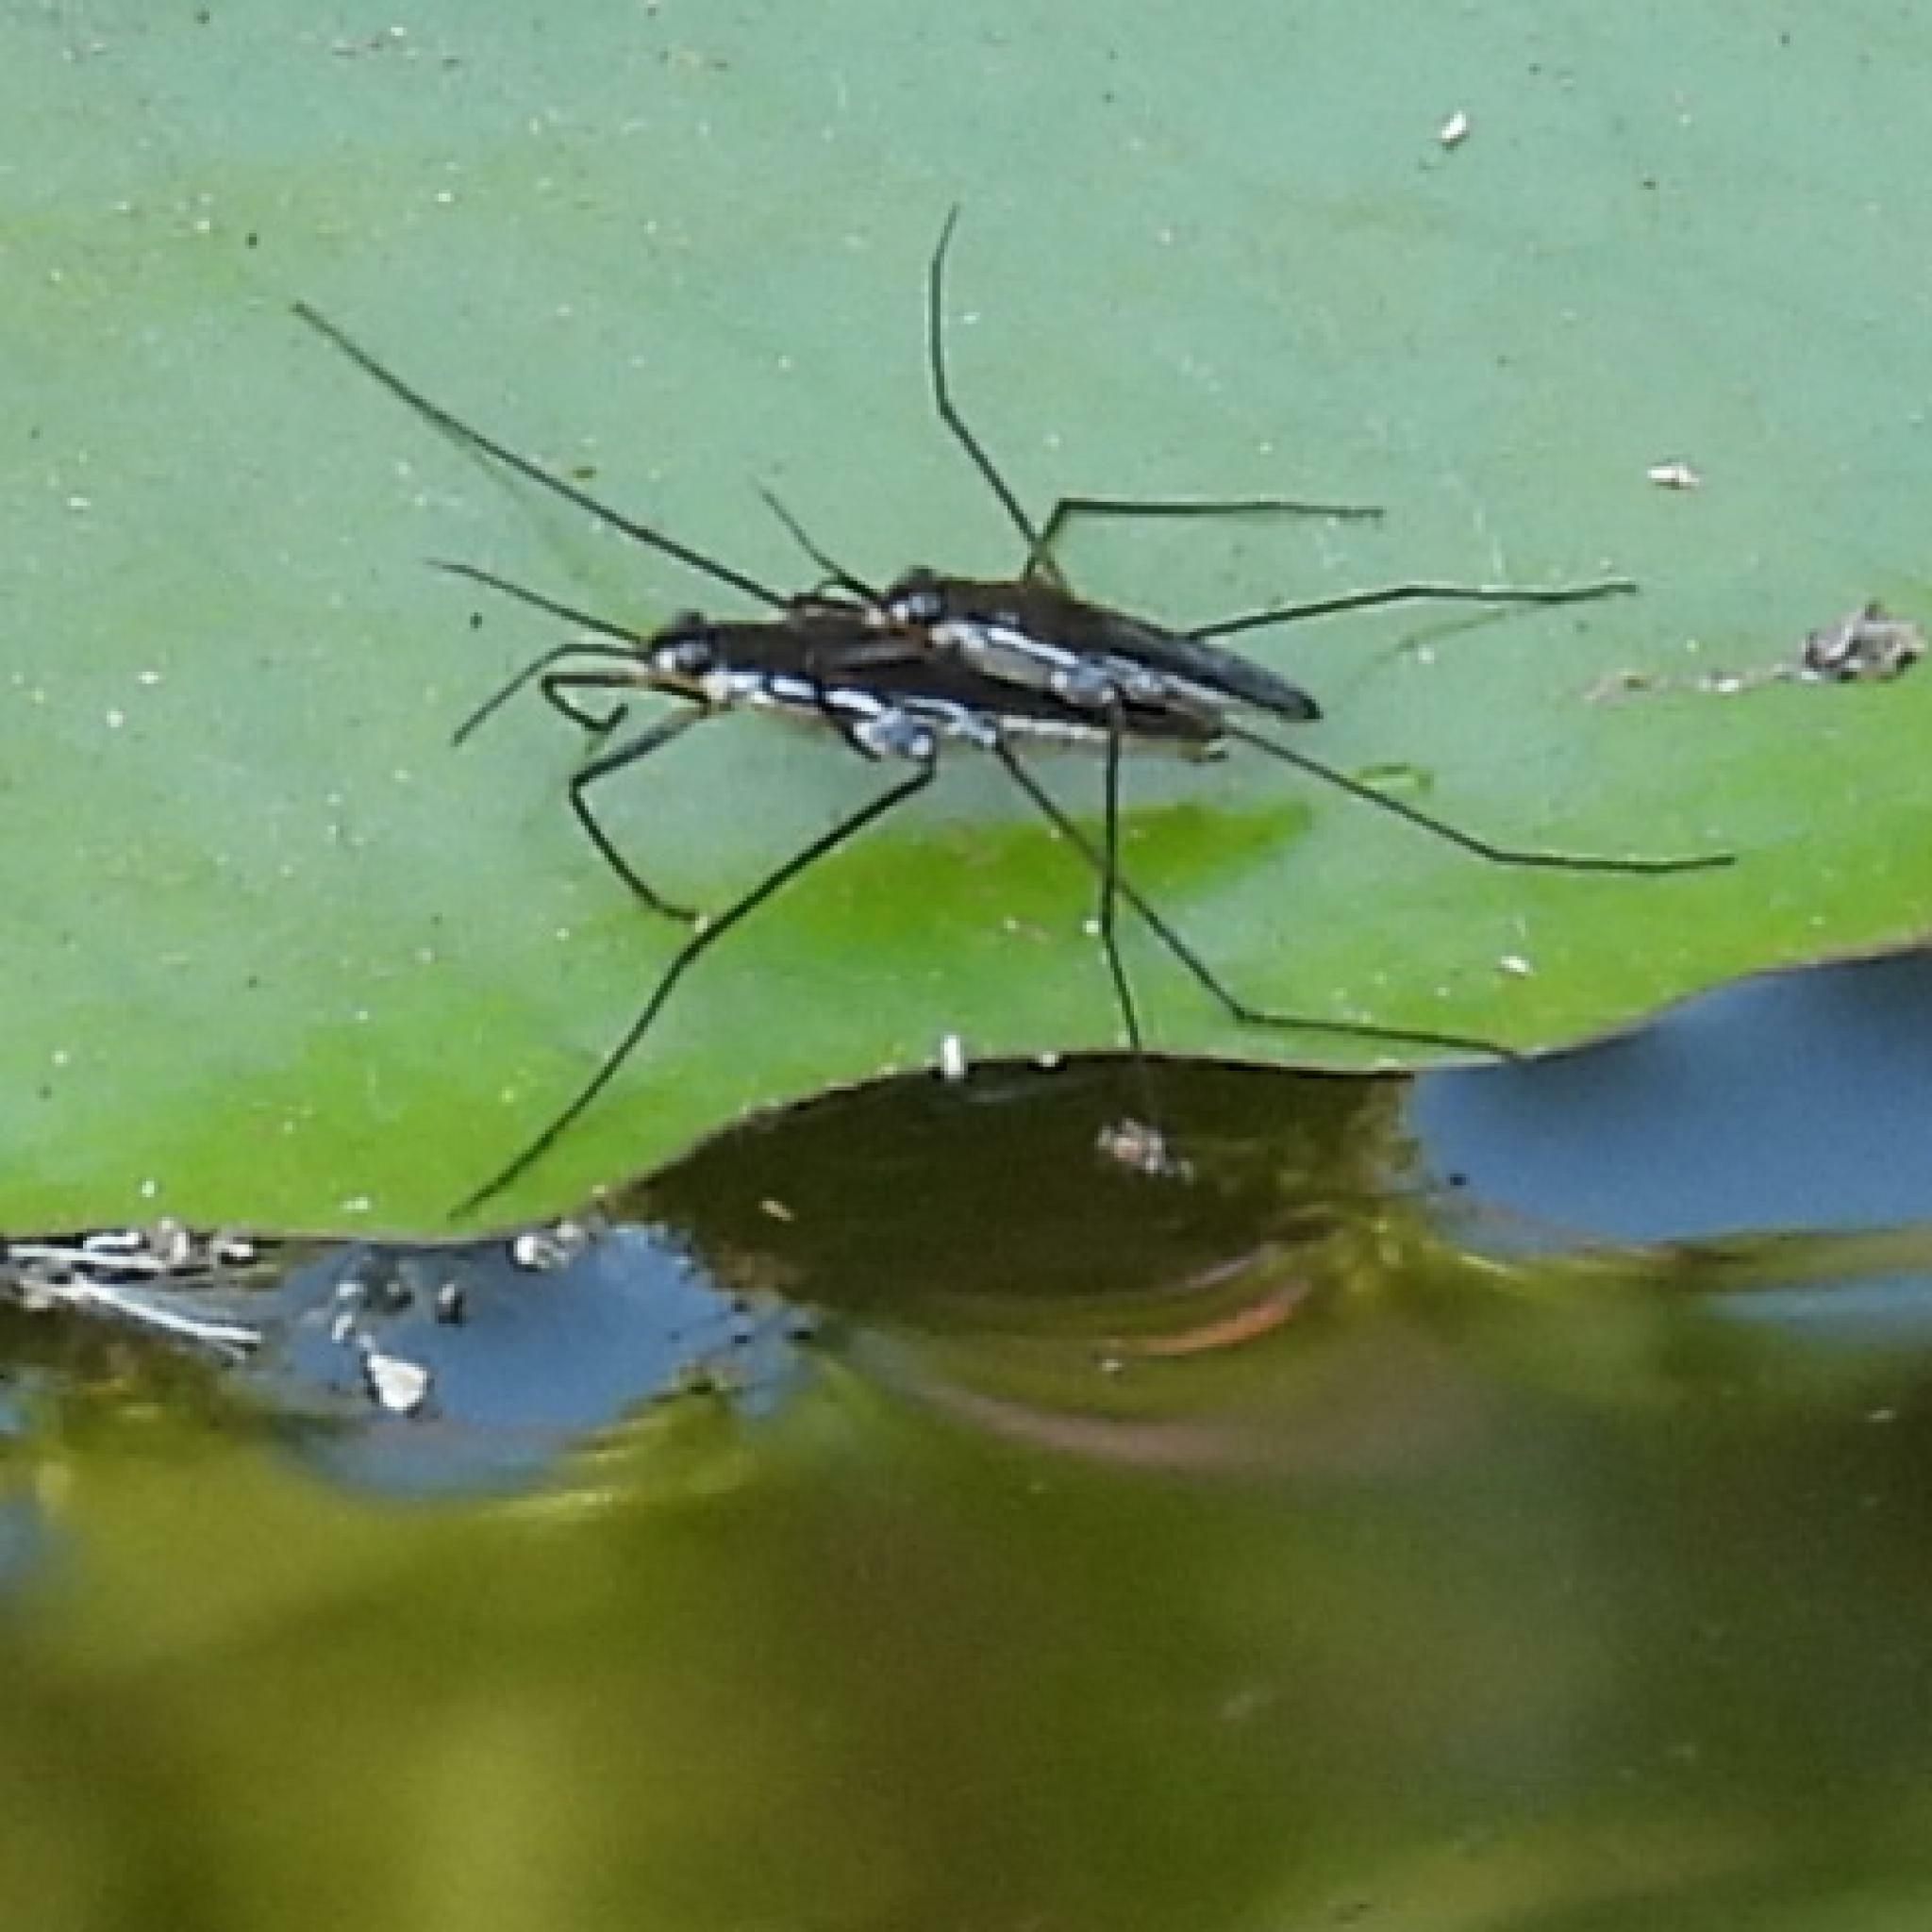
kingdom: Animalia
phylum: Arthropoda
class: Insecta
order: Hemiptera
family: Gerridae
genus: Gerris
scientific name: Gerris swakopensis
